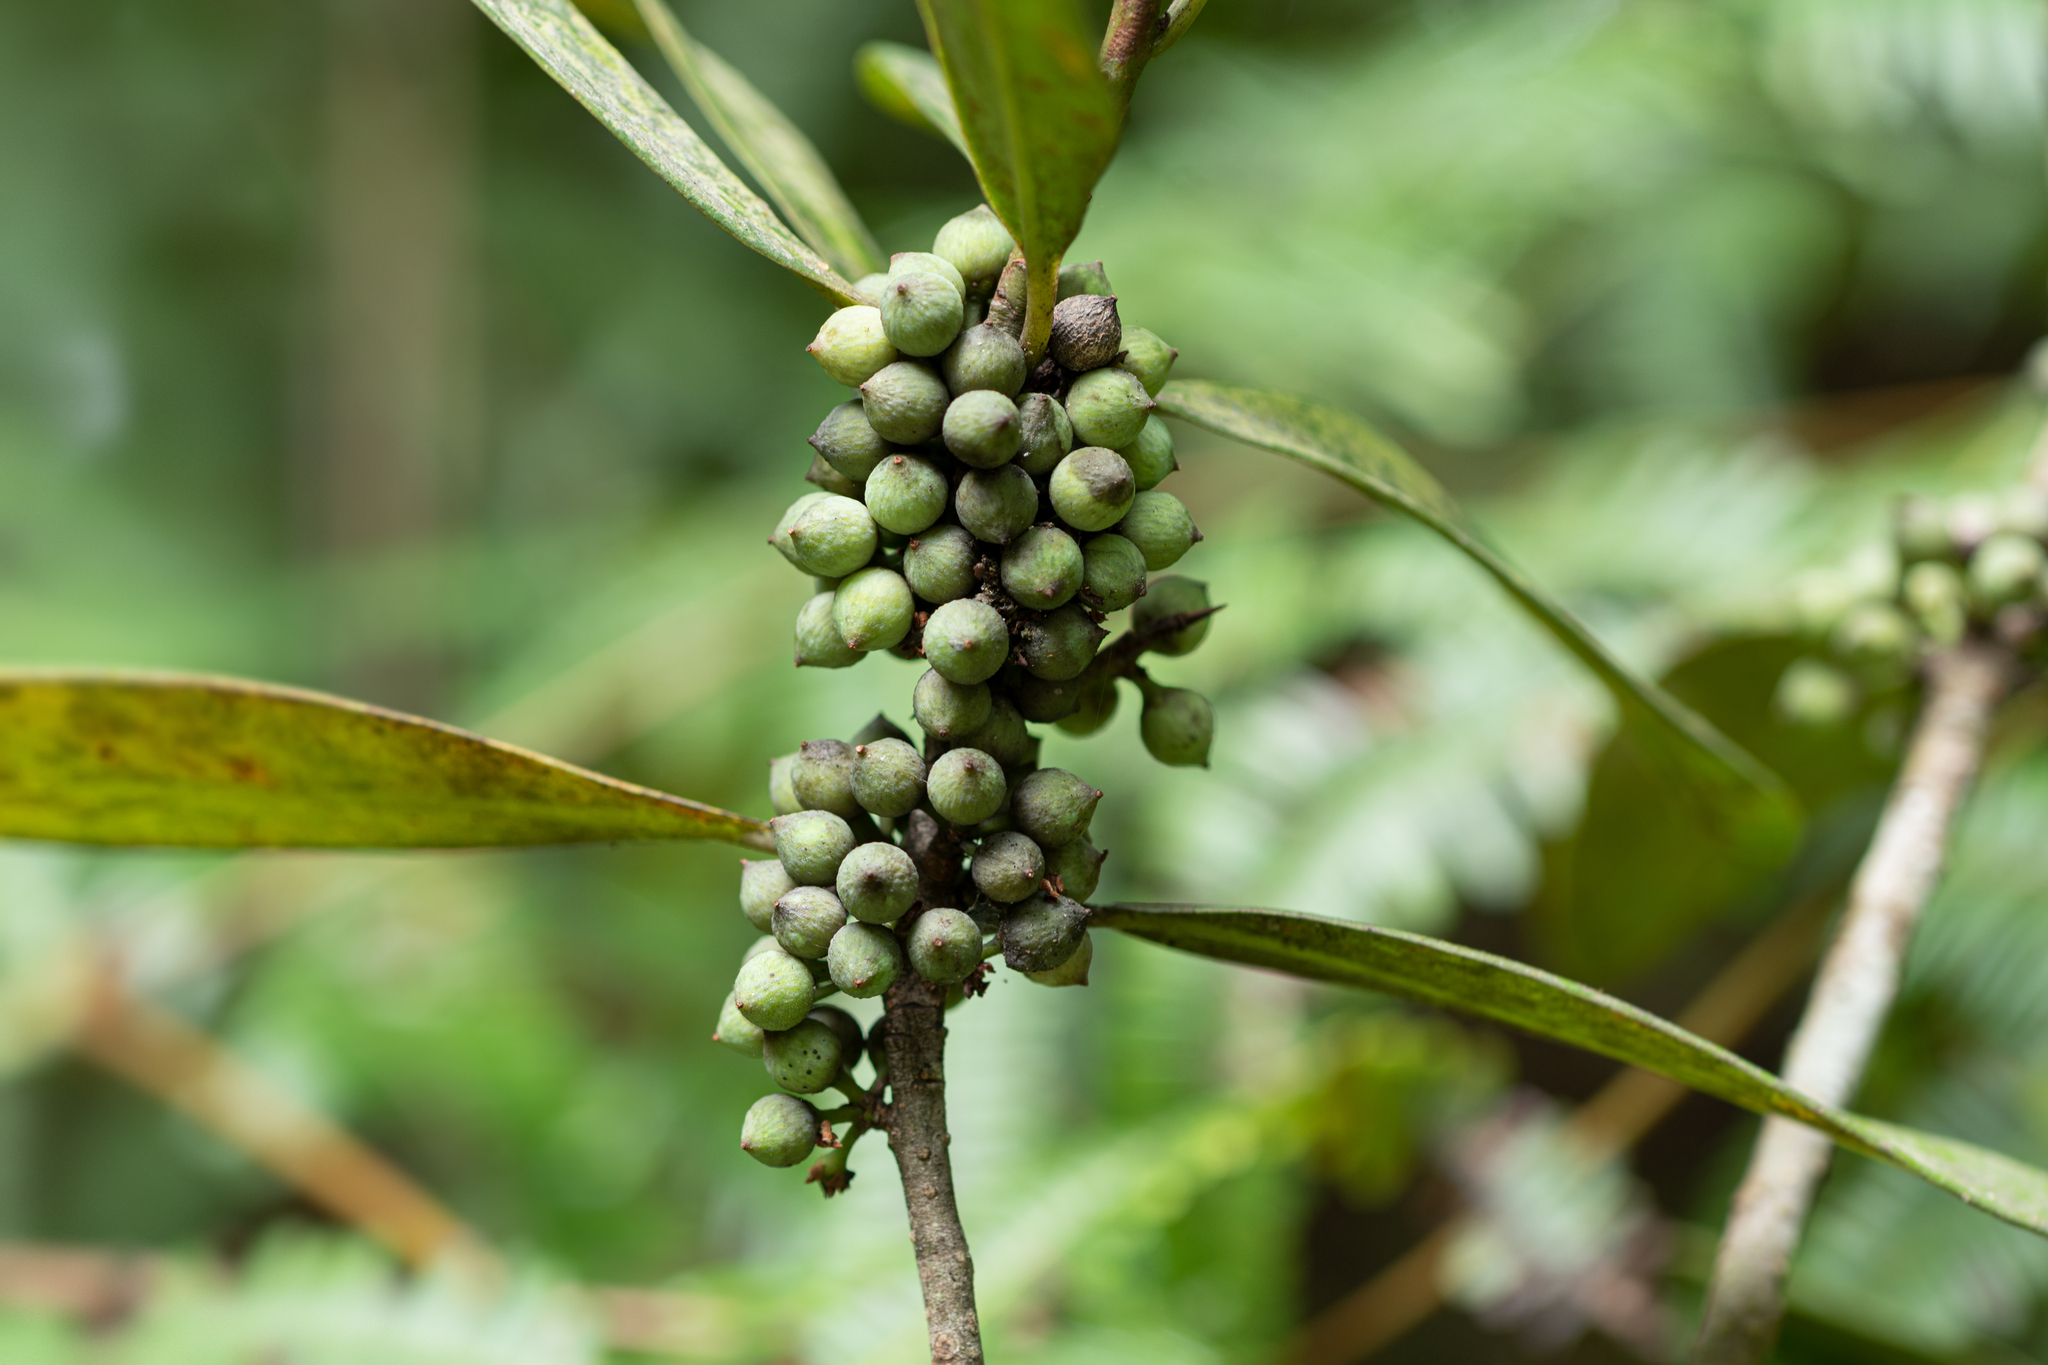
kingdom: Plantae
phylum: Tracheophyta
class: Magnoliopsida
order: Ericales
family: Primulaceae
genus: Myrsine
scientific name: Myrsine seguinii
